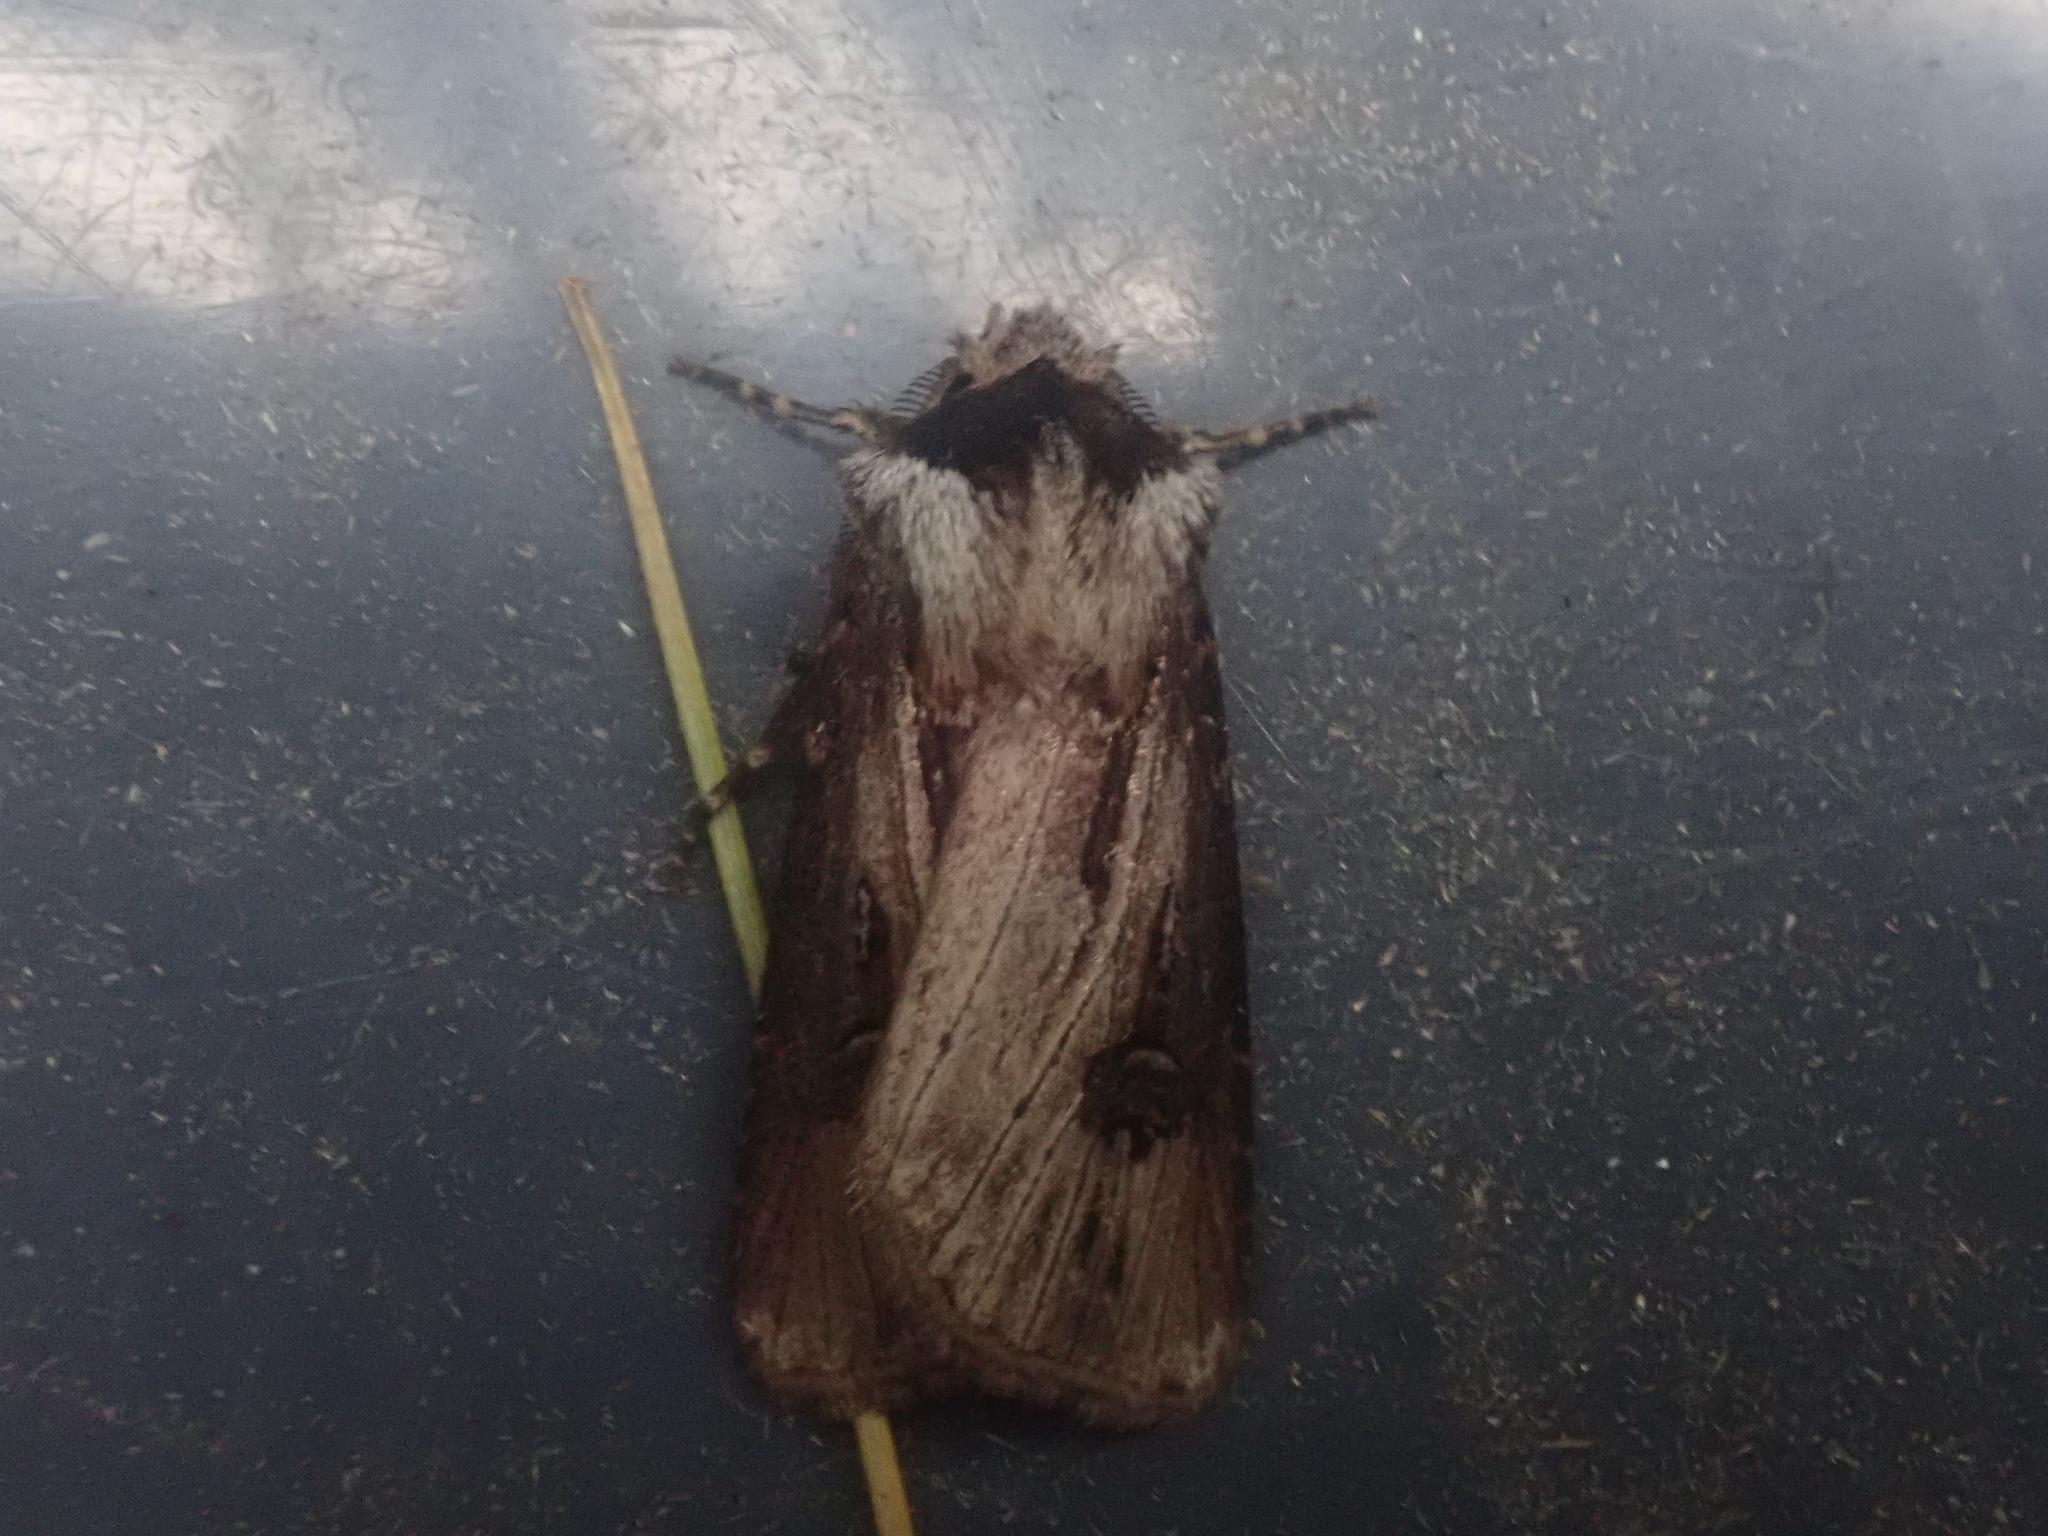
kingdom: Animalia
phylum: Arthropoda
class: Insecta
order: Lepidoptera
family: Noctuidae
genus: Agrotis
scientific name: Agrotis venerabilis
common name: Venerable dart
